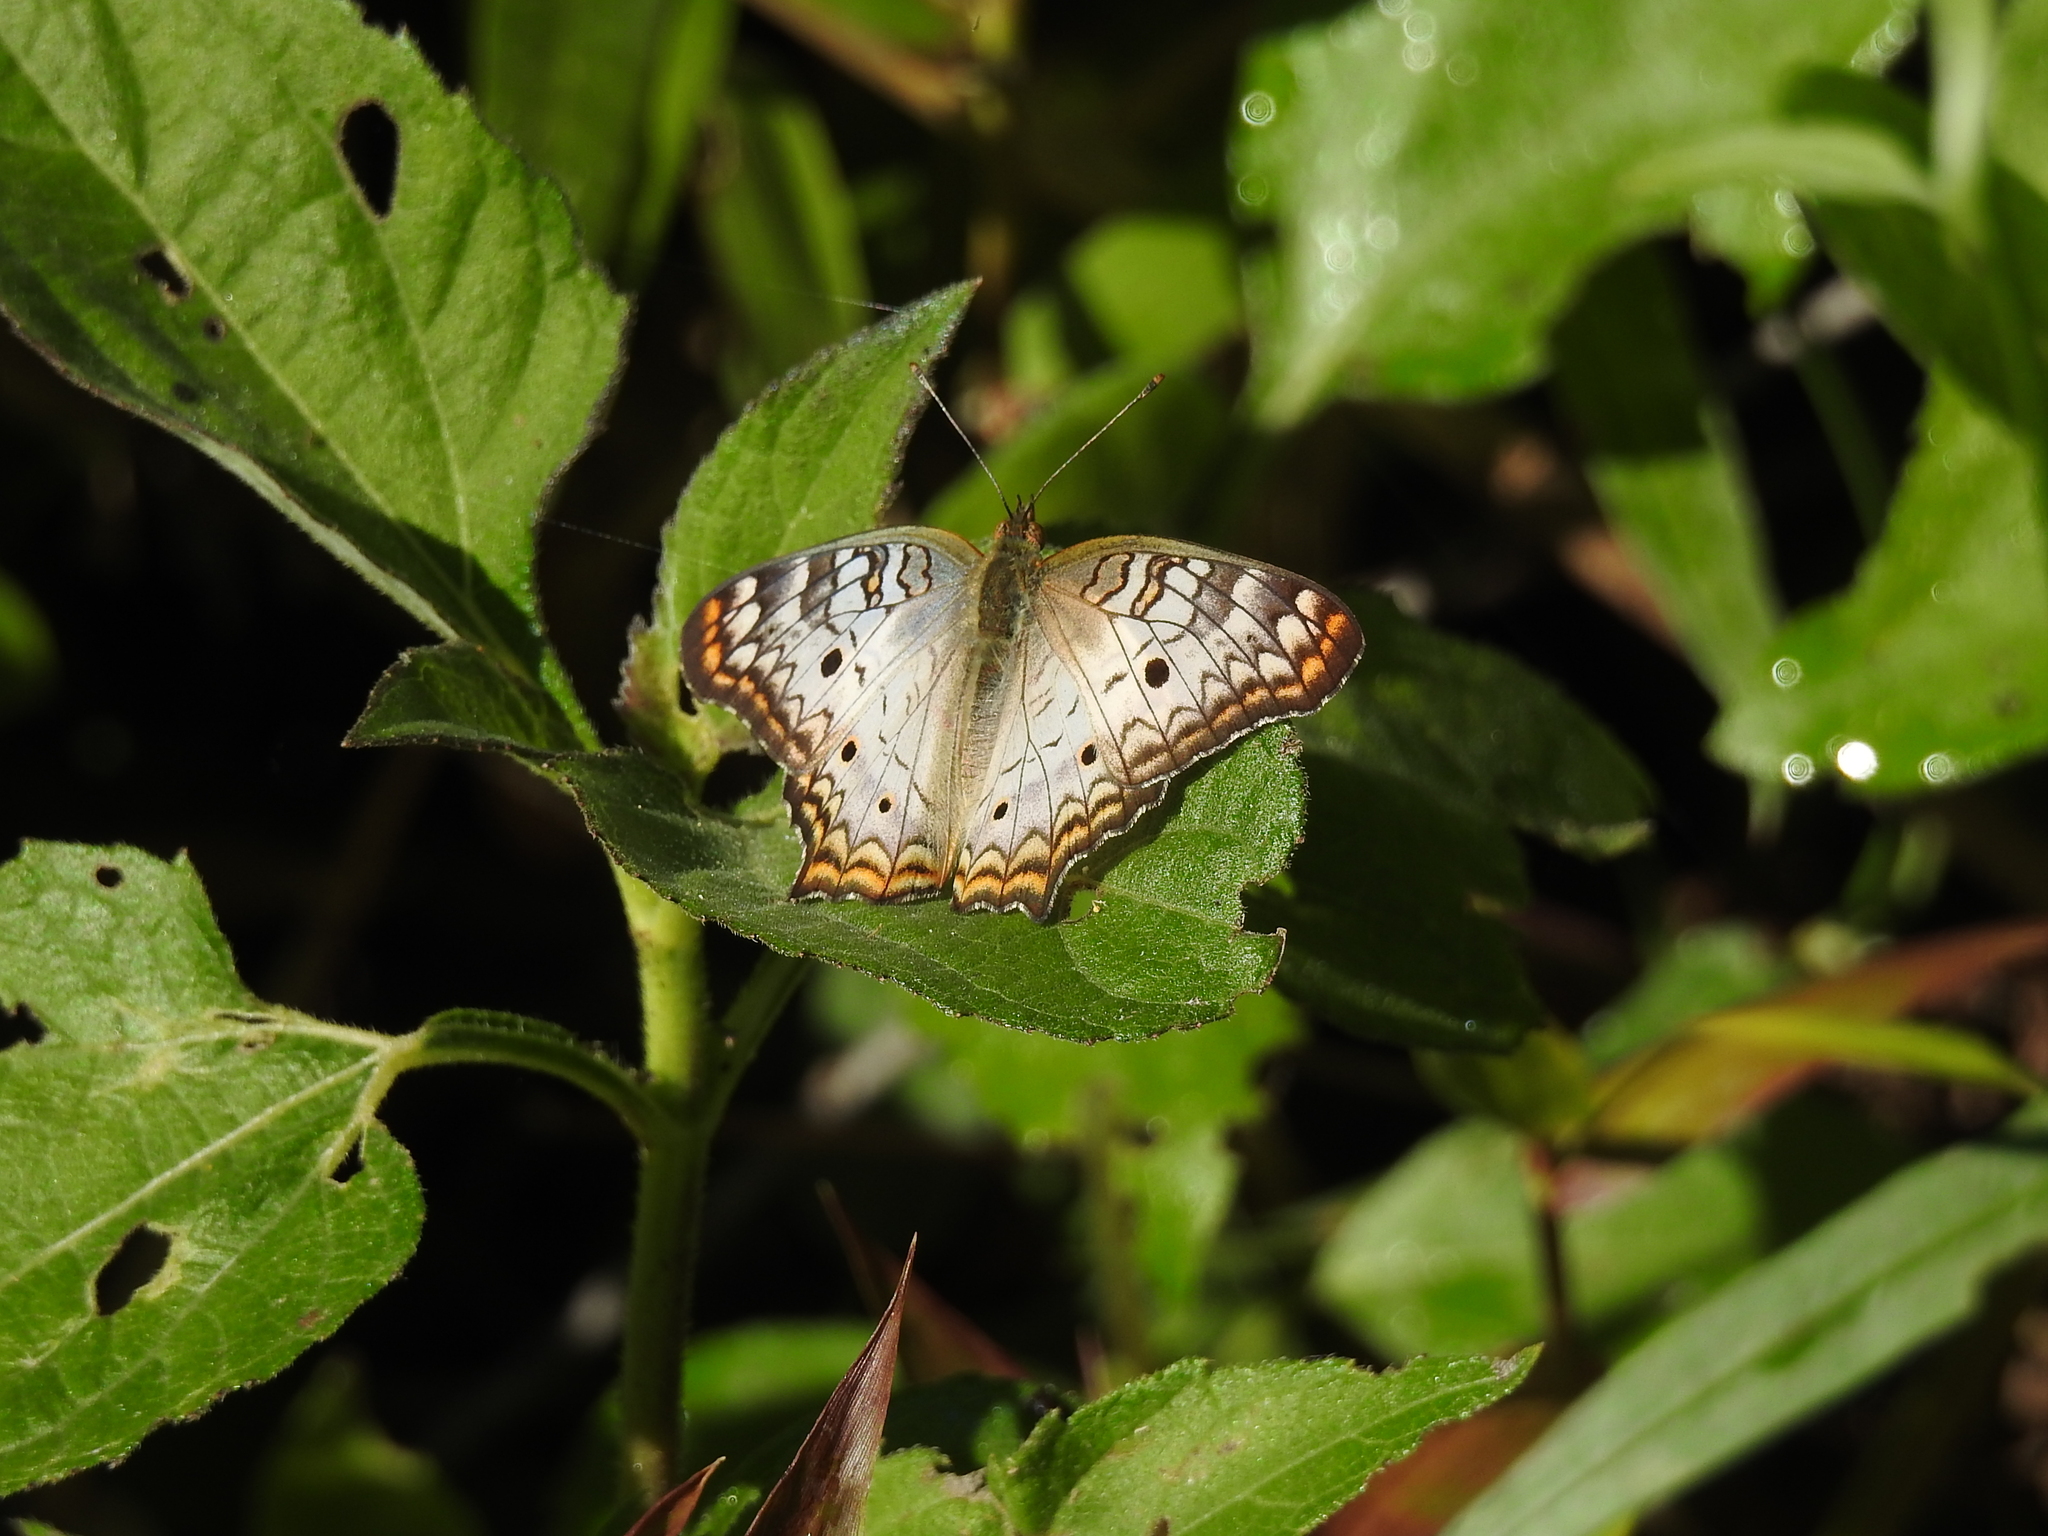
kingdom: Animalia
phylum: Arthropoda
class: Insecta
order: Lepidoptera
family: Nymphalidae
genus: Anartia
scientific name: Anartia jatrophae
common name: White peacock
